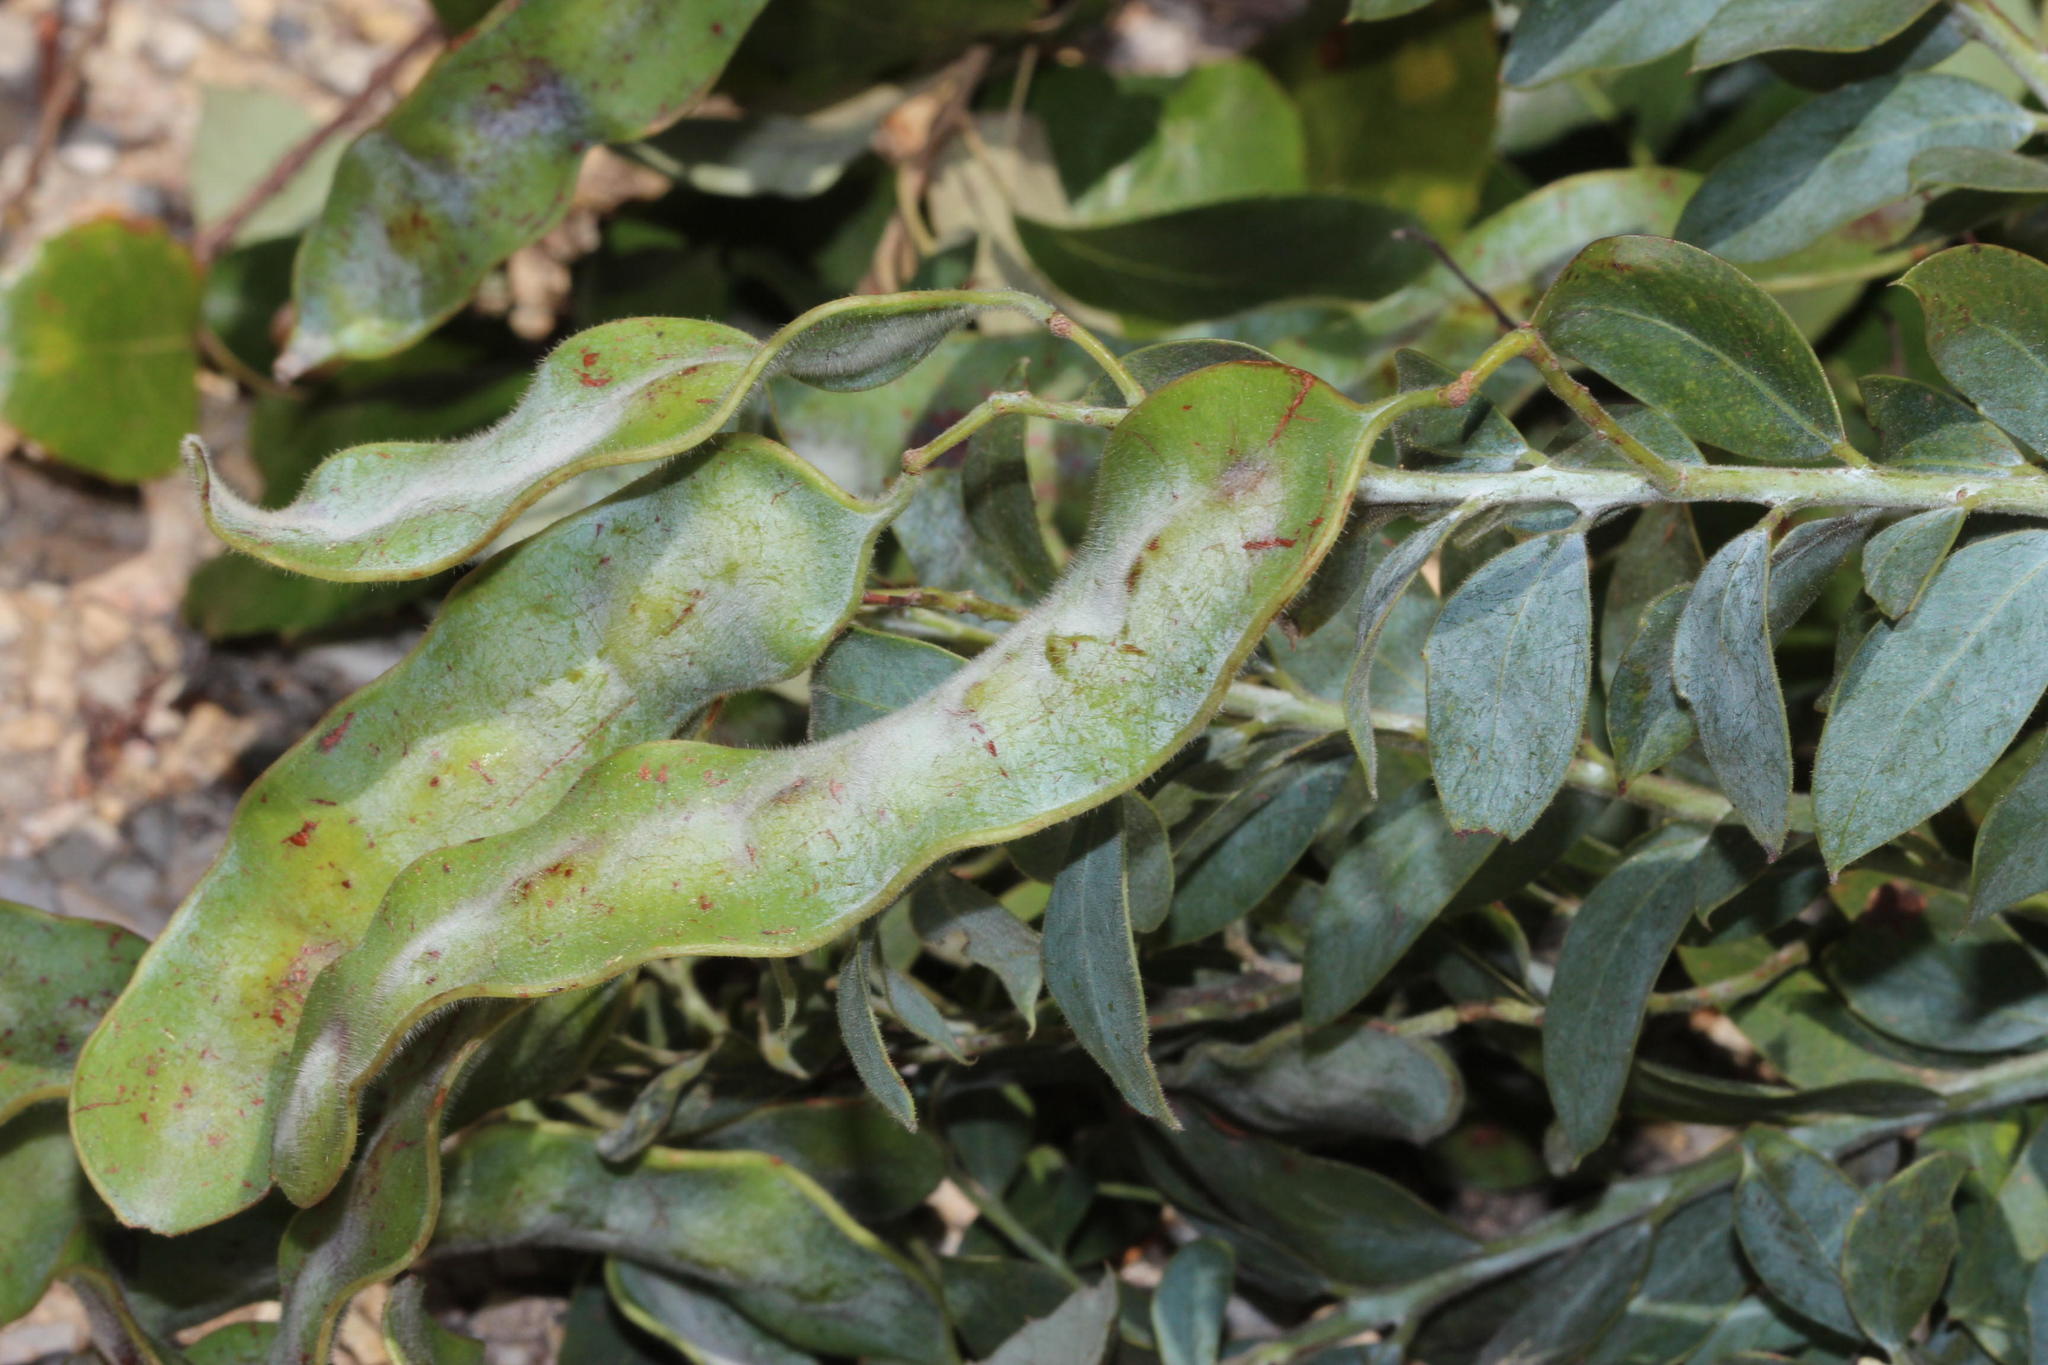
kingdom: Plantae
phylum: Tracheophyta
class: Magnoliopsida
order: Fabales
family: Fabaceae
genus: Acacia
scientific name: Acacia podalyriifolia
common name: Pearl wattle
